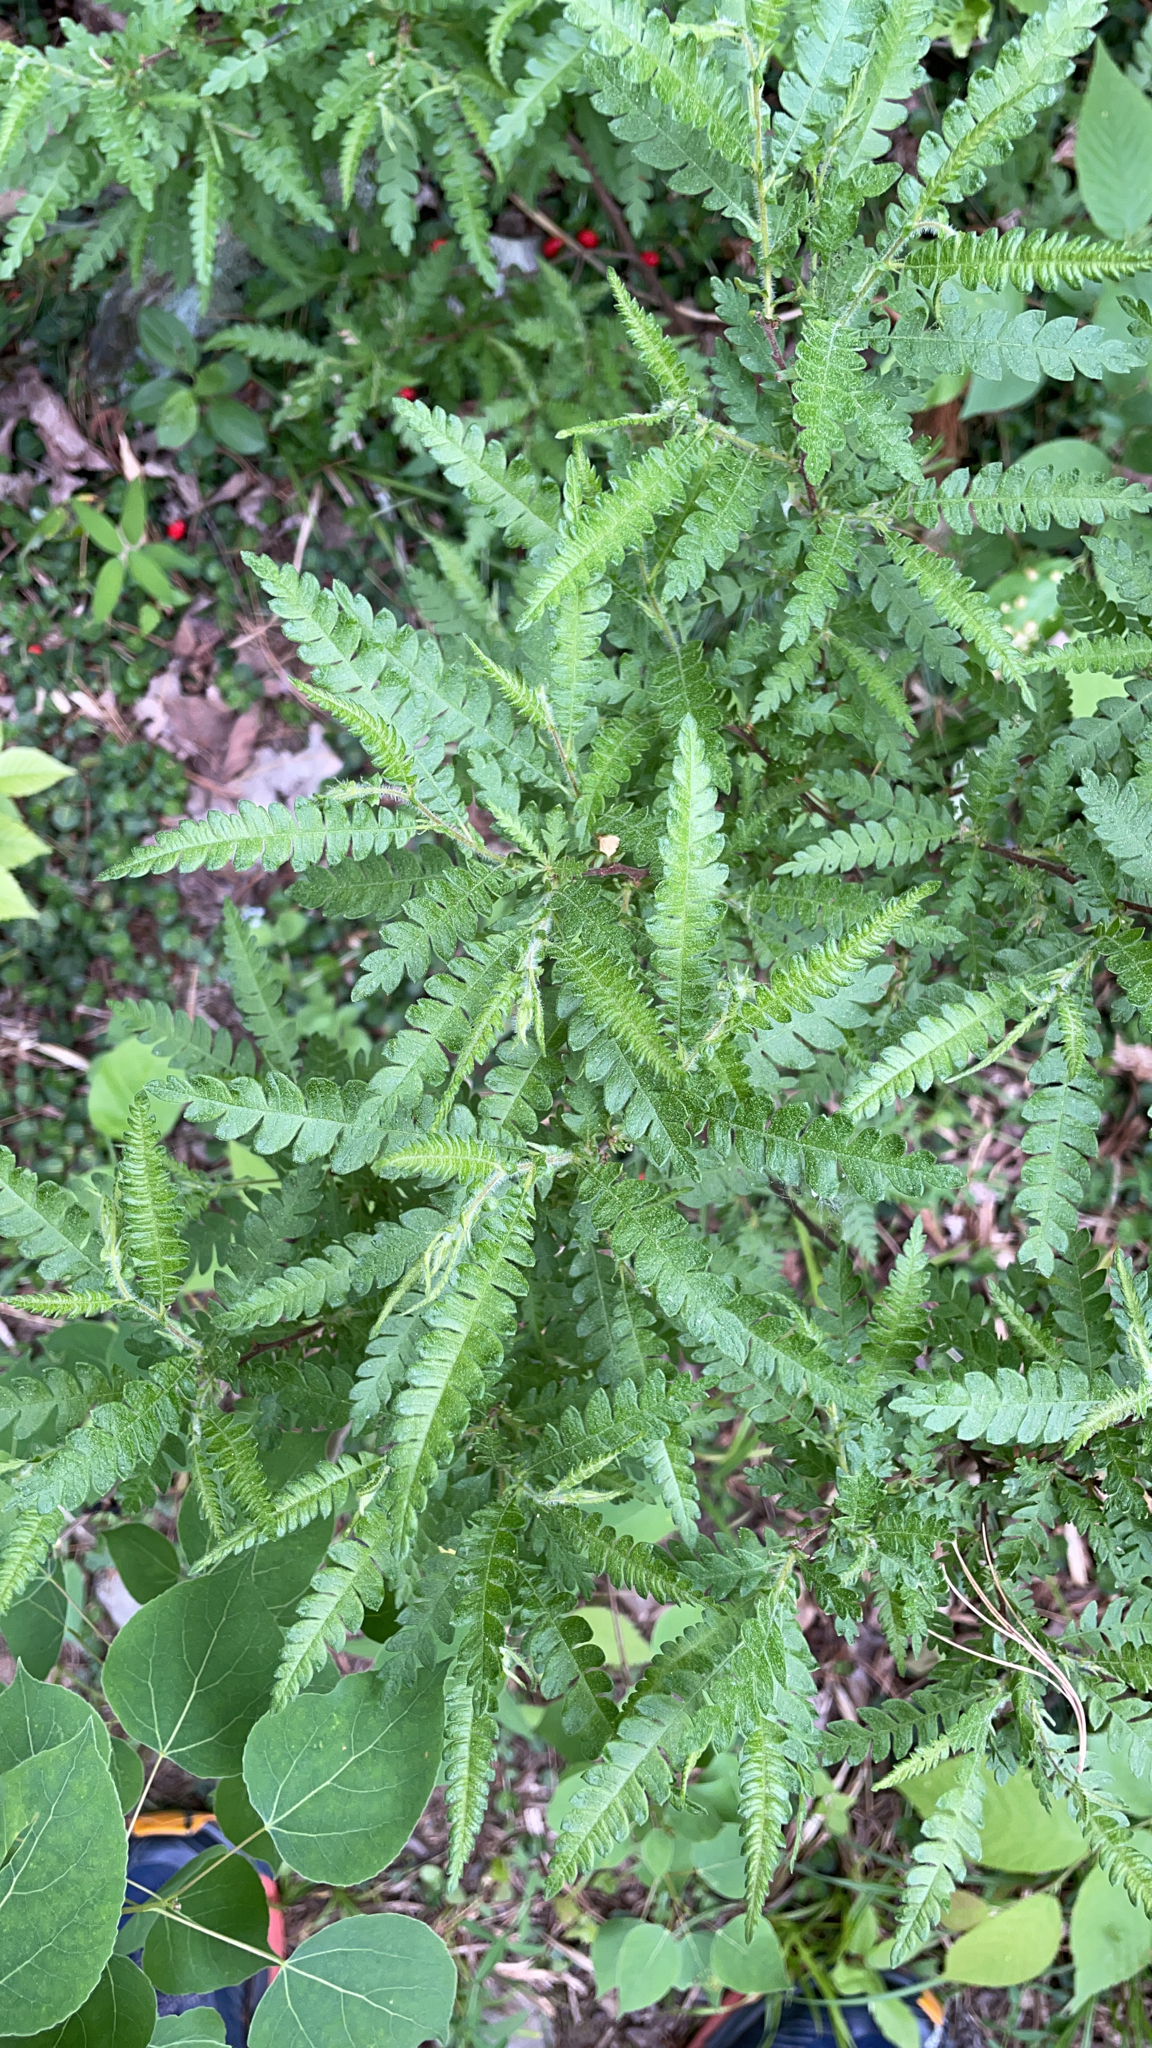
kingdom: Plantae
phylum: Tracheophyta
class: Magnoliopsida
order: Fagales
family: Myricaceae
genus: Comptonia
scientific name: Comptonia peregrina
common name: Sweet-fern
